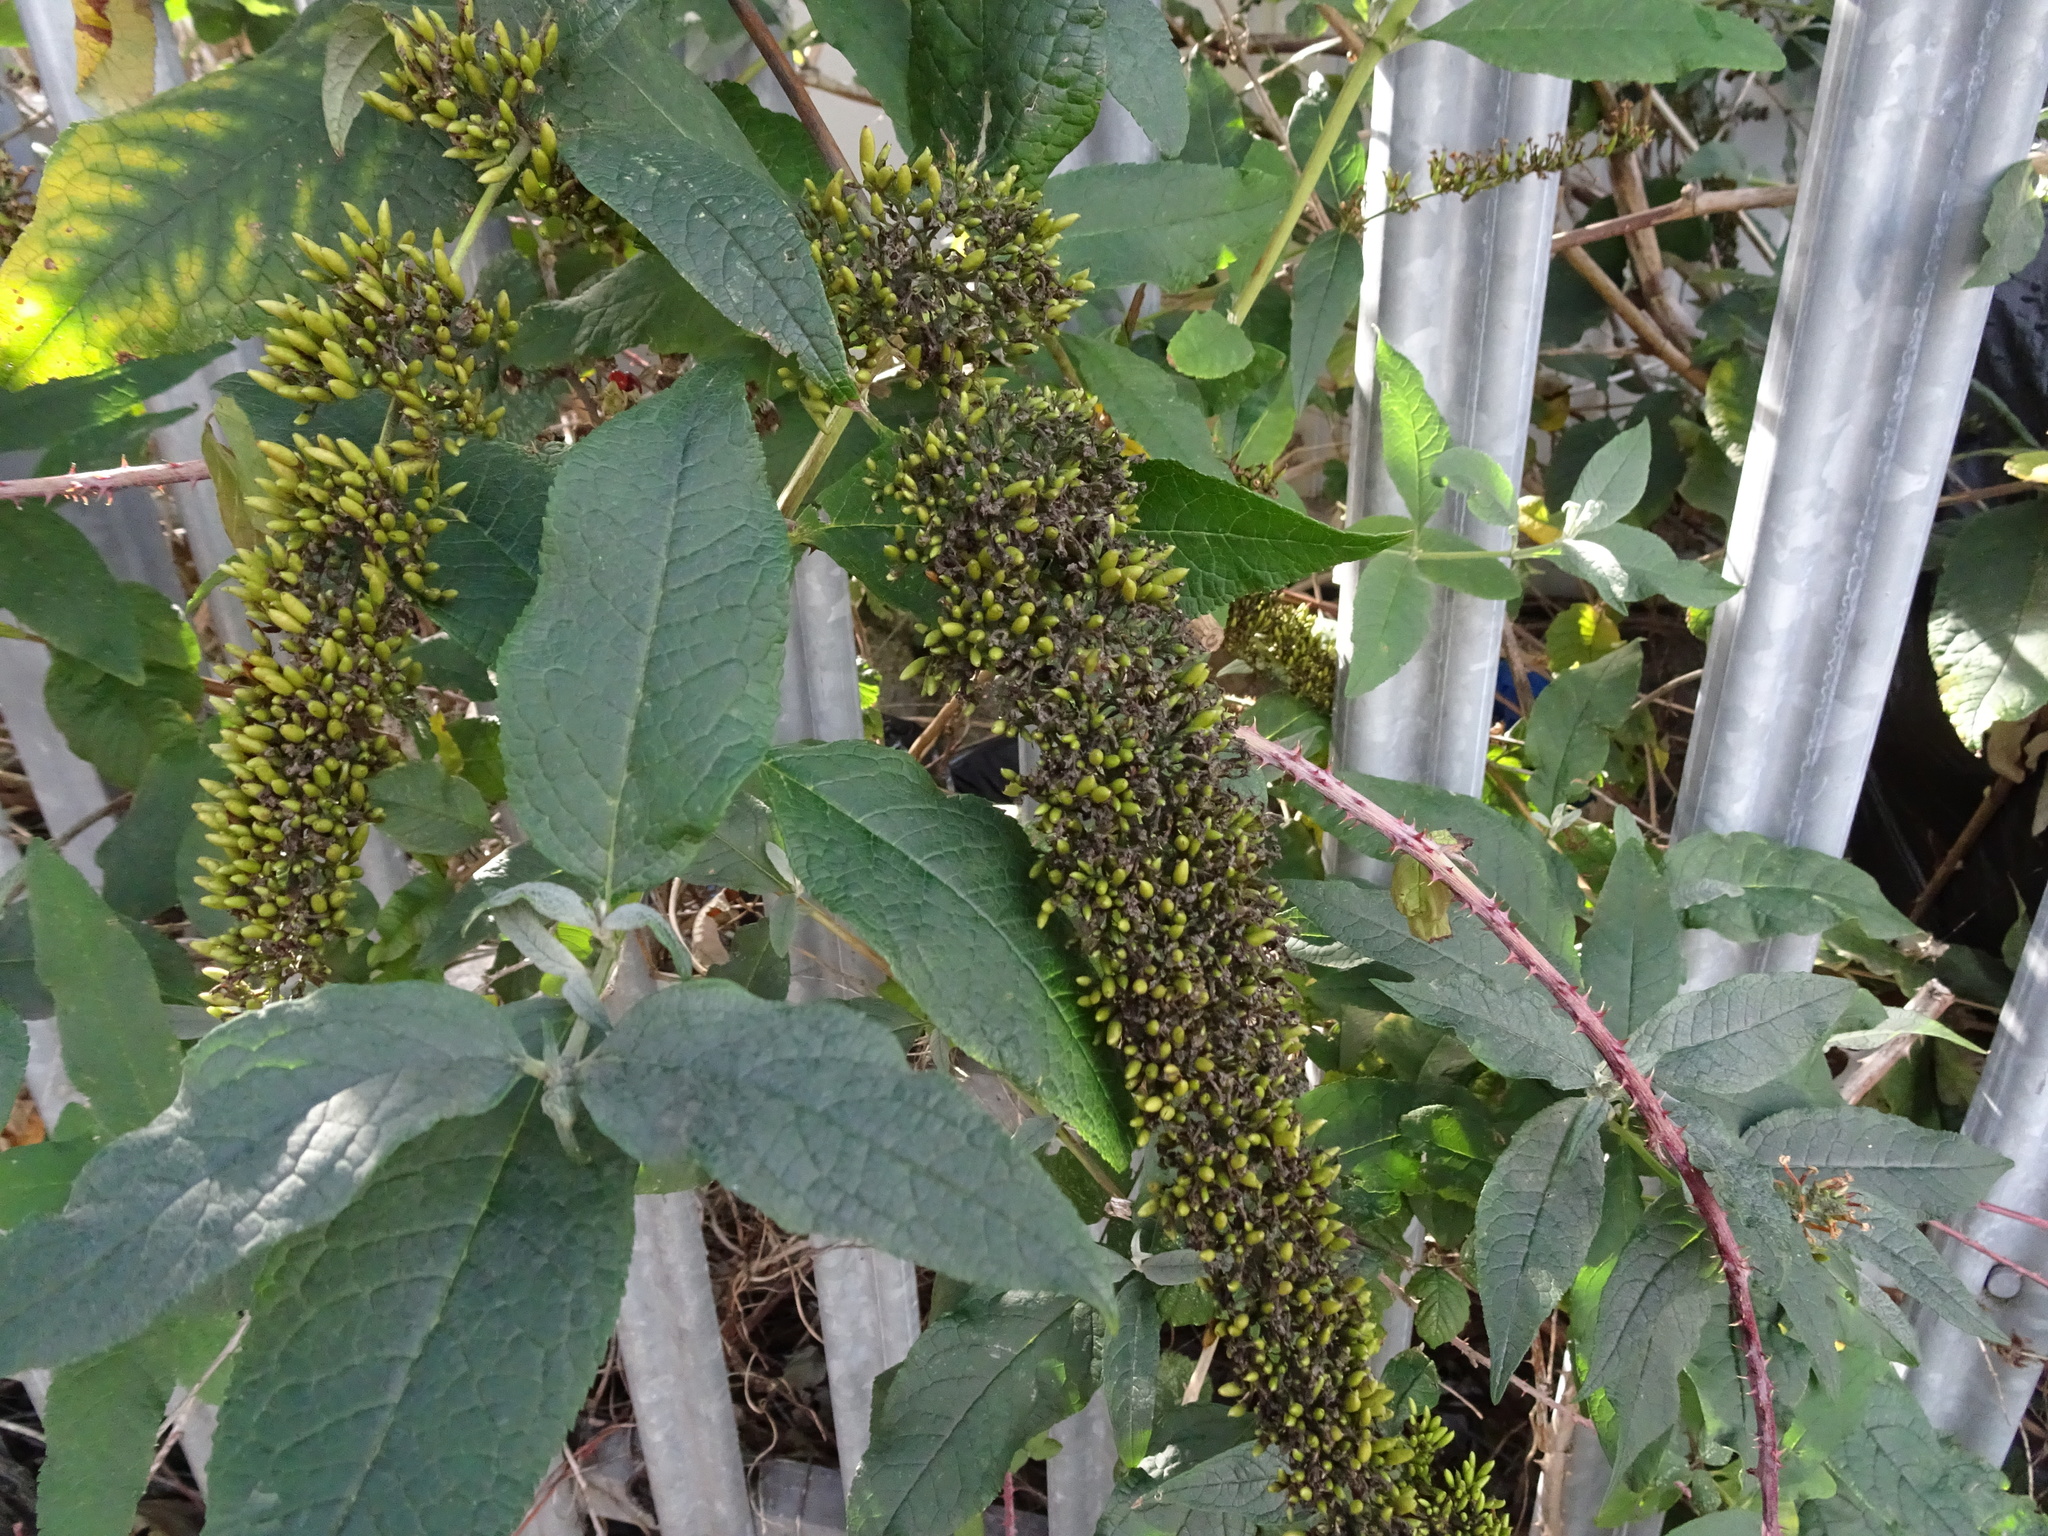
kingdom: Plantae
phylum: Tracheophyta
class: Magnoliopsida
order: Lamiales
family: Scrophulariaceae
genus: Buddleja
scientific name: Buddleja davidii
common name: Butterfly-bush
